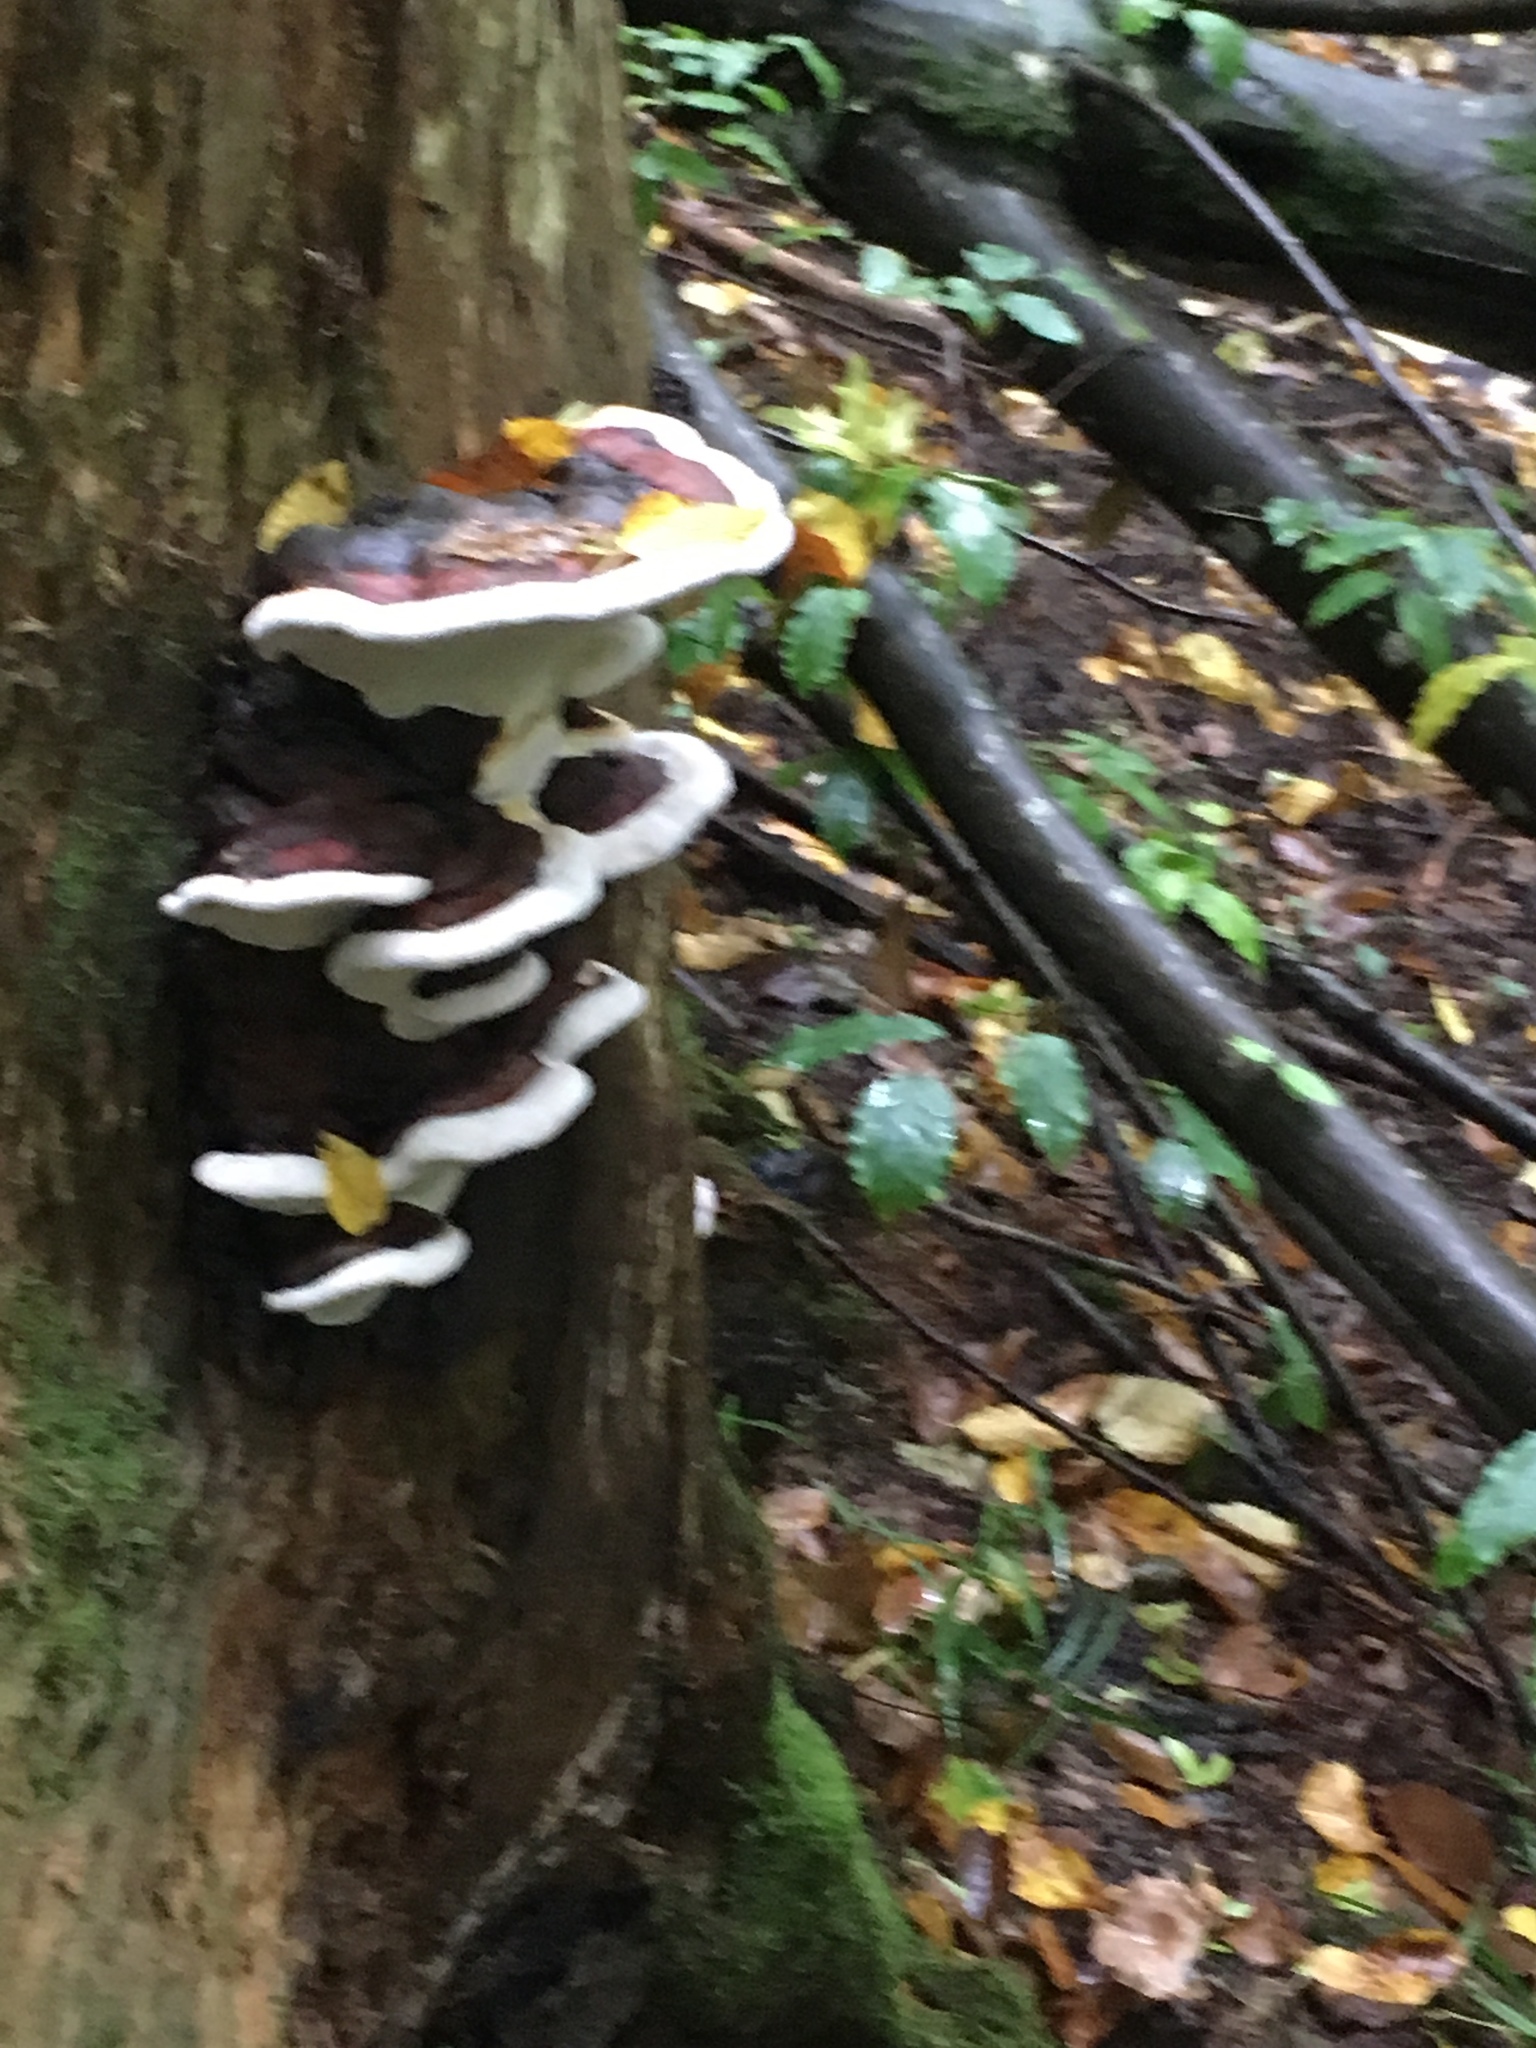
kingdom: Fungi
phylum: Basidiomycota
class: Agaricomycetes
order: Polyporales
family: Fomitopsidaceae
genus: Fomitopsis
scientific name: Fomitopsis pinicola
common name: Red-belted bracket
